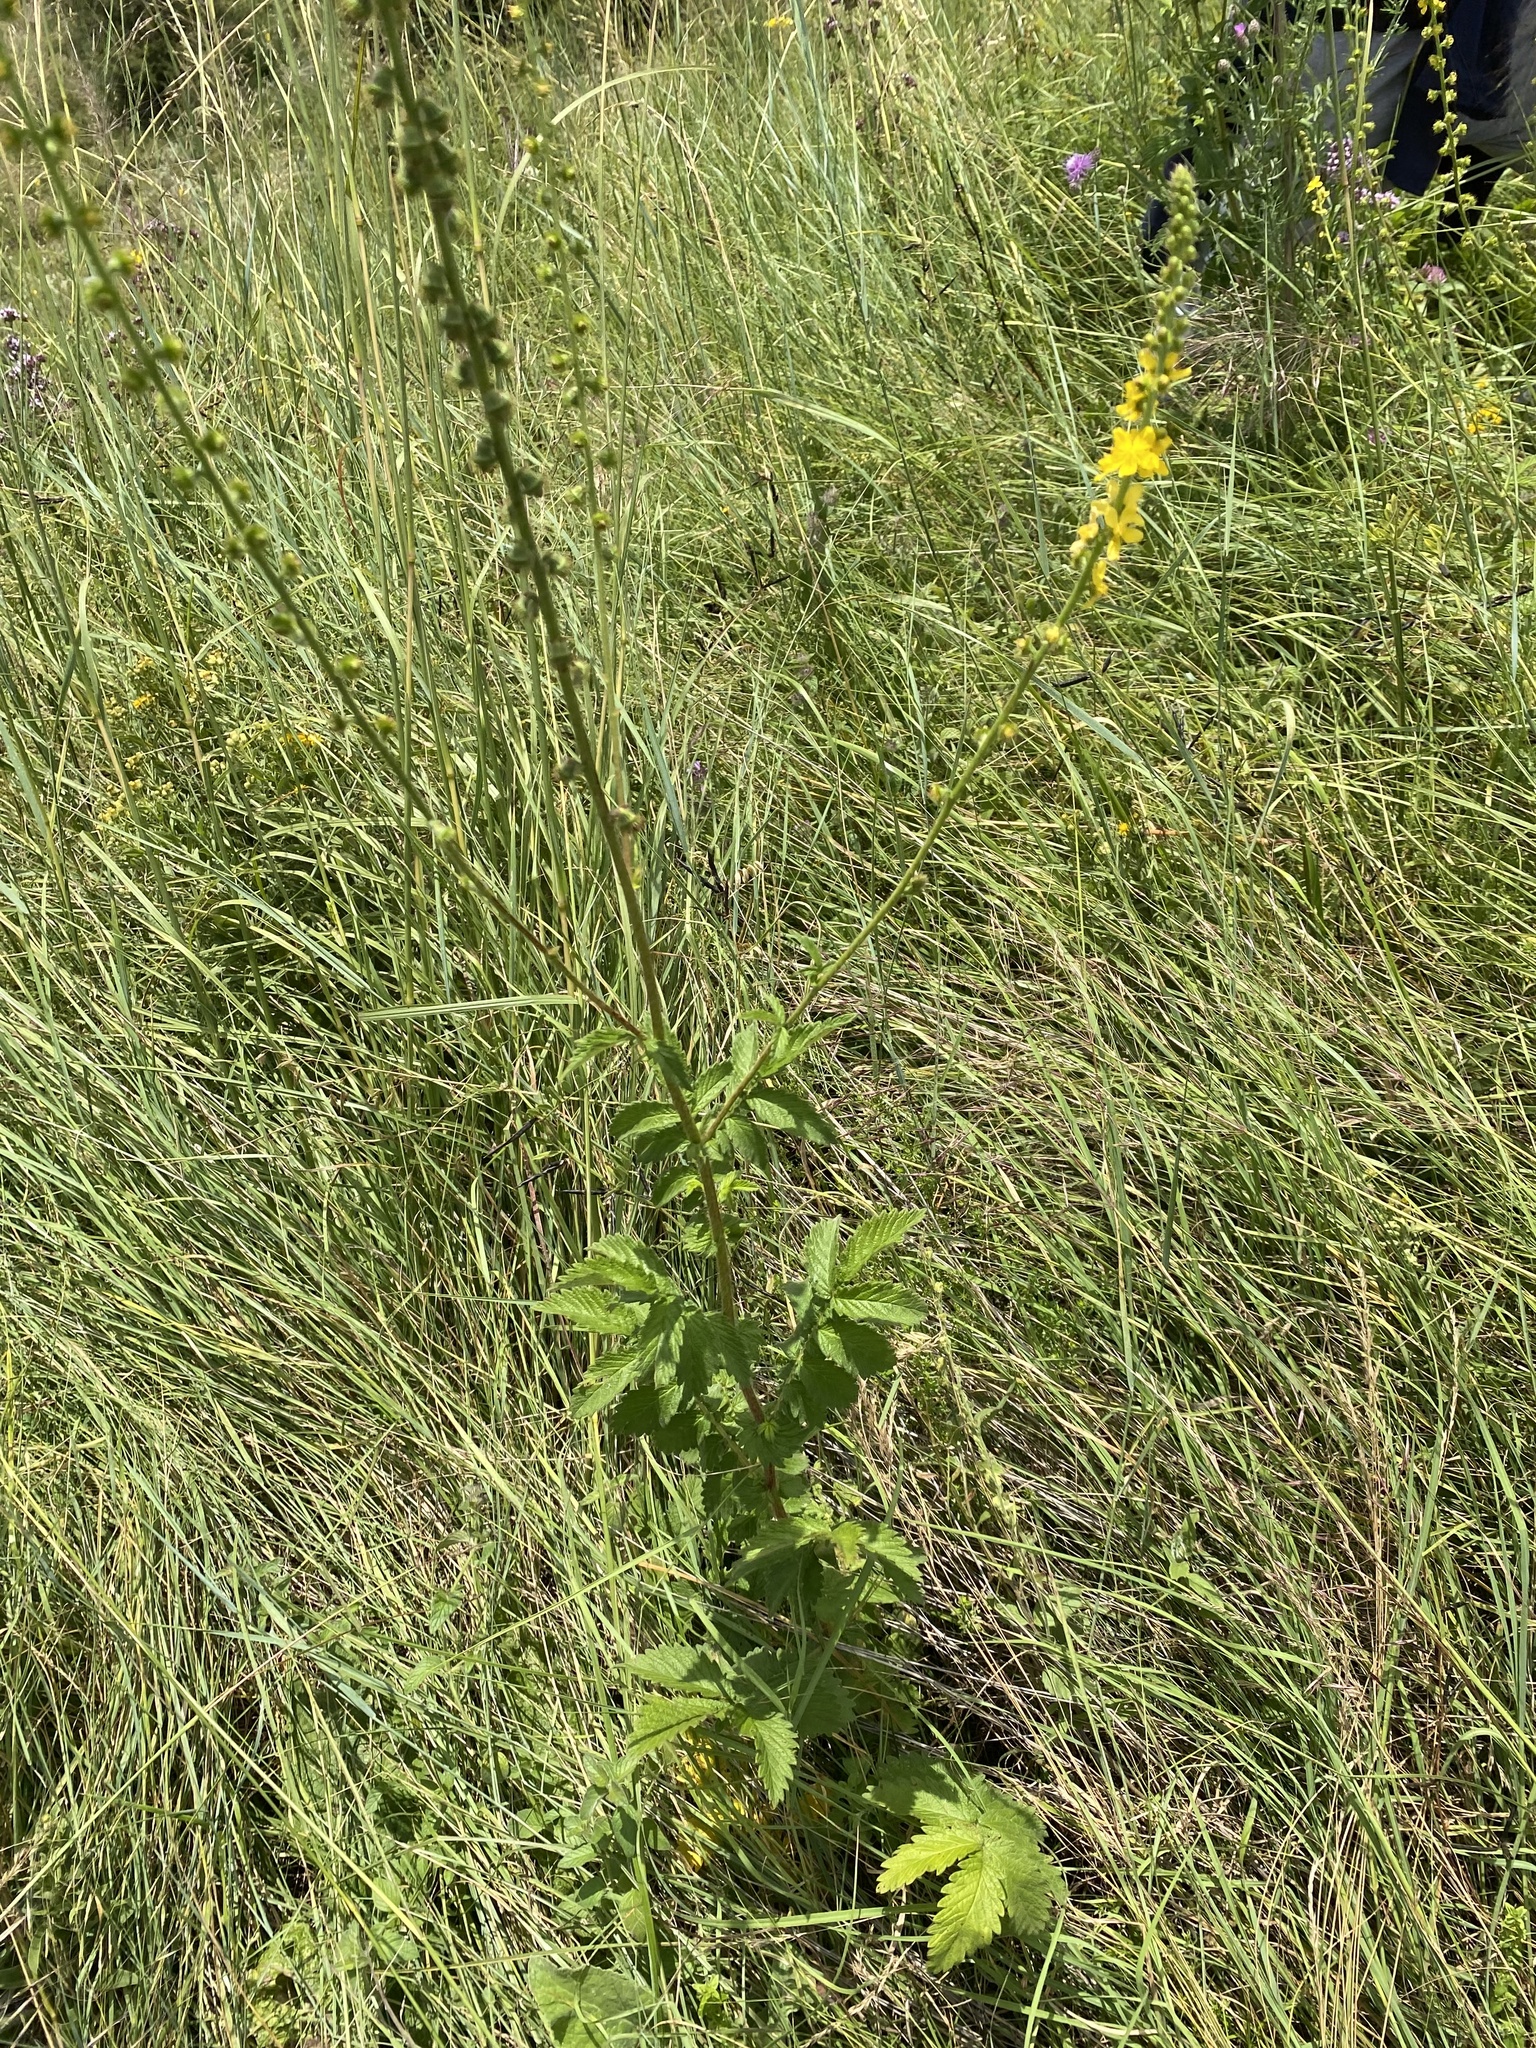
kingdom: Plantae
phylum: Tracheophyta
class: Magnoliopsida
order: Rosales
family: Rosaceae
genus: Agrimonia
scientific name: Agrimonia eupatoria
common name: Agrimony
